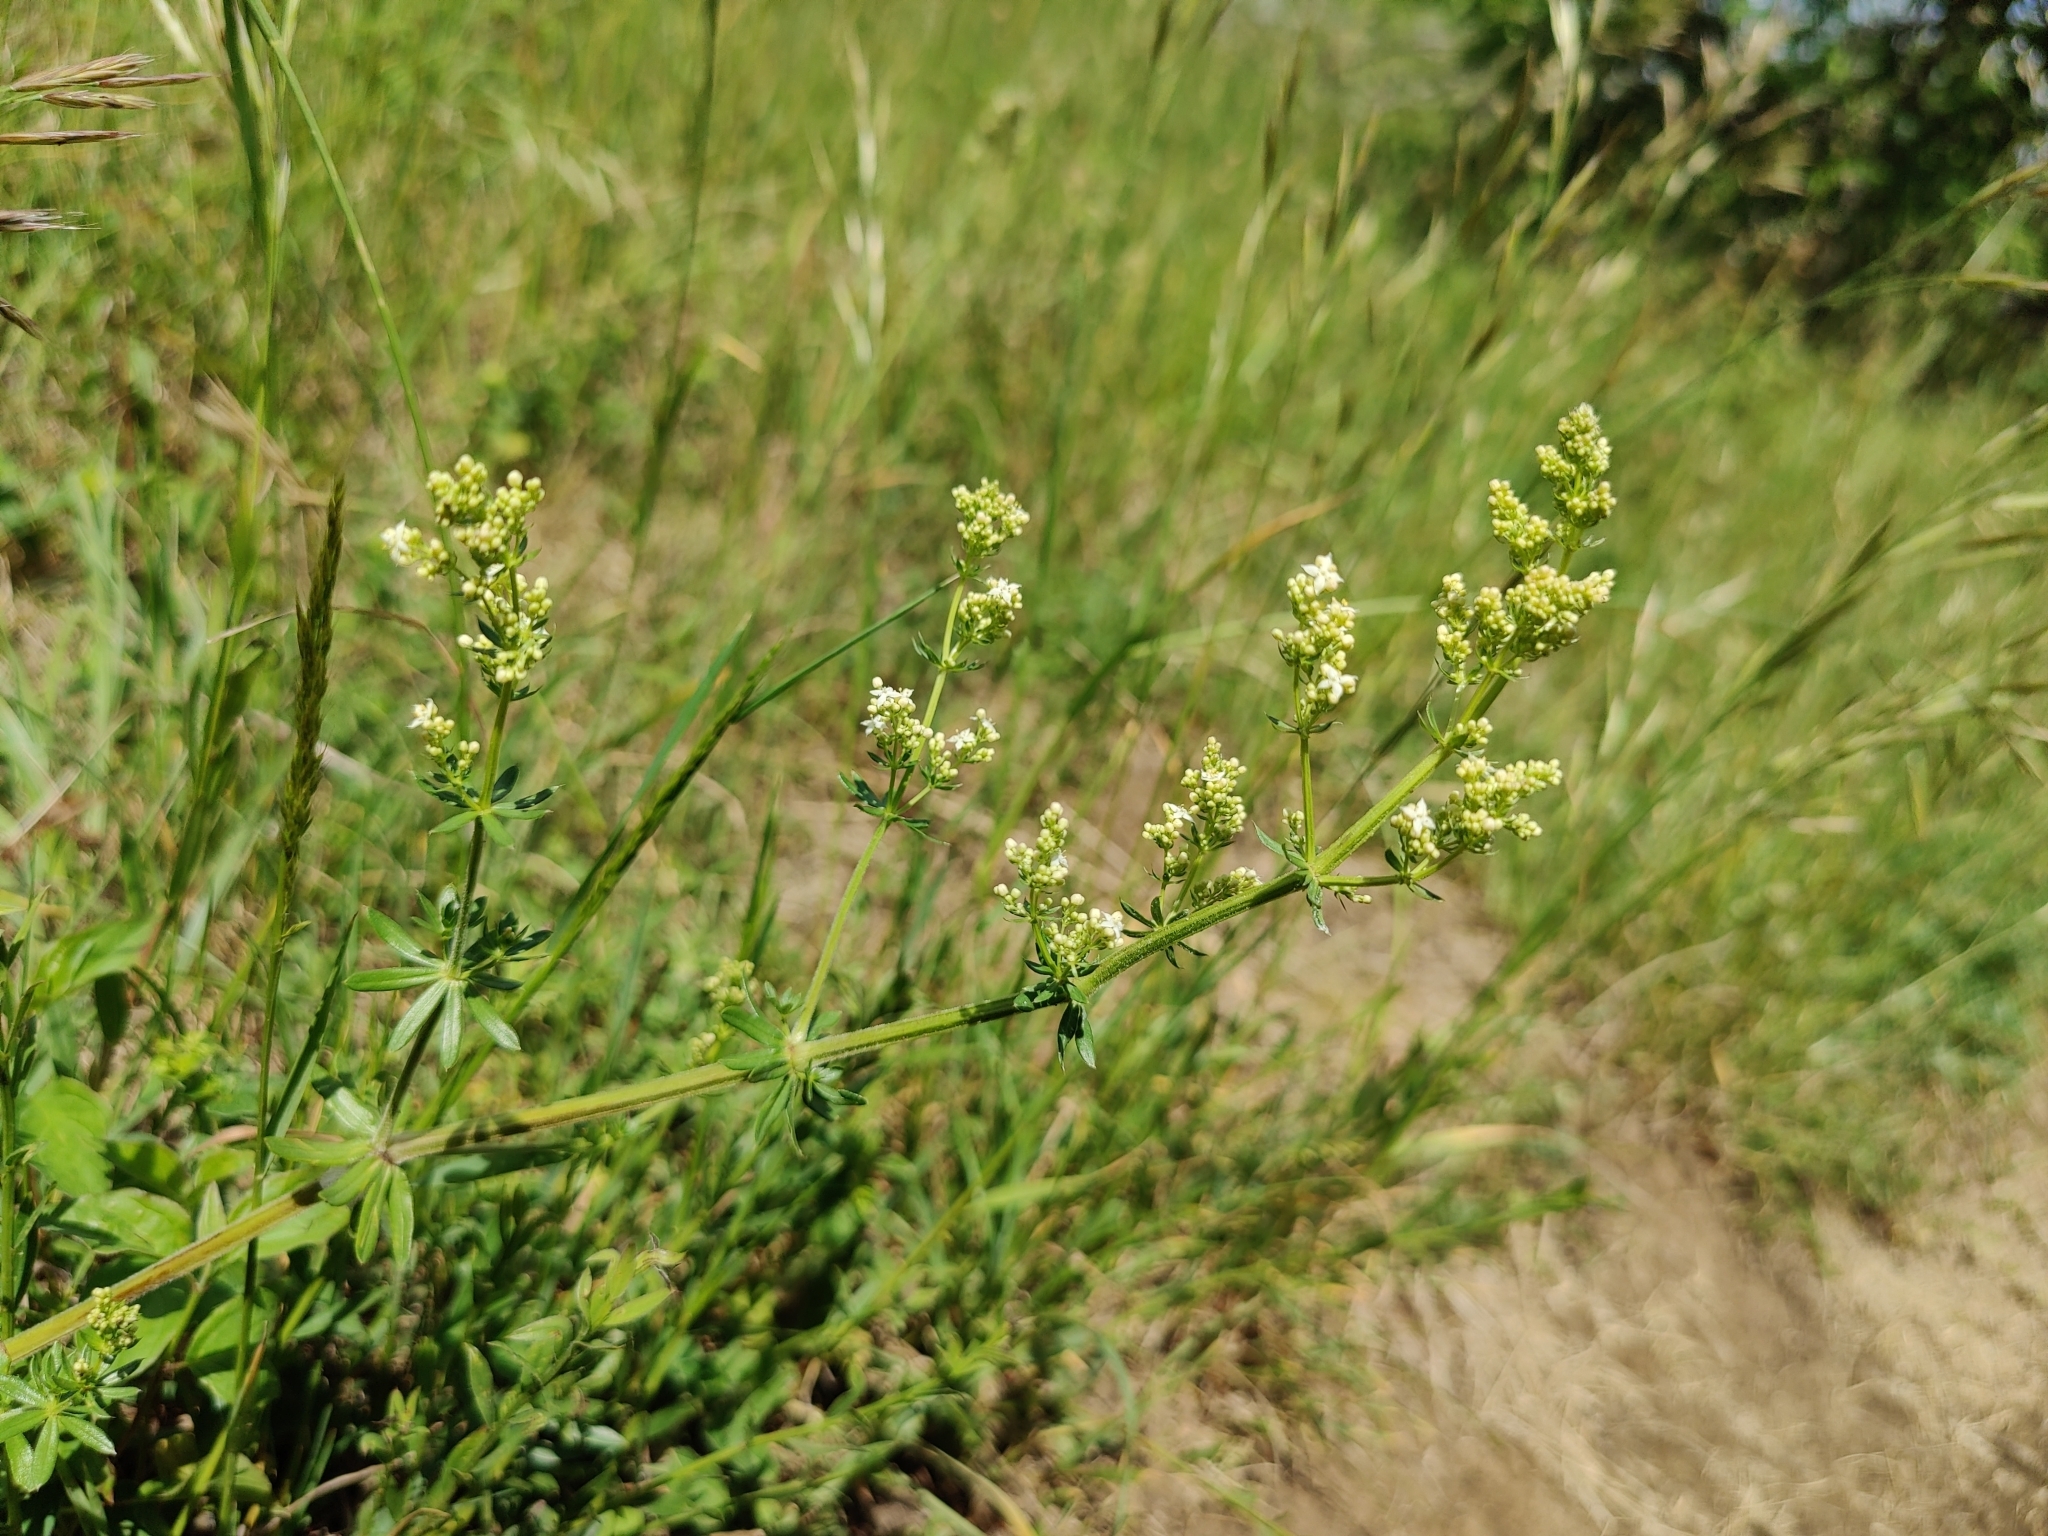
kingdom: Plantae
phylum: Tracheophyta
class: Magnoliopsida
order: Gentianales
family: Rubiaceae
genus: Galium
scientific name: Galium mollugo
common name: Hedge bedstraw
